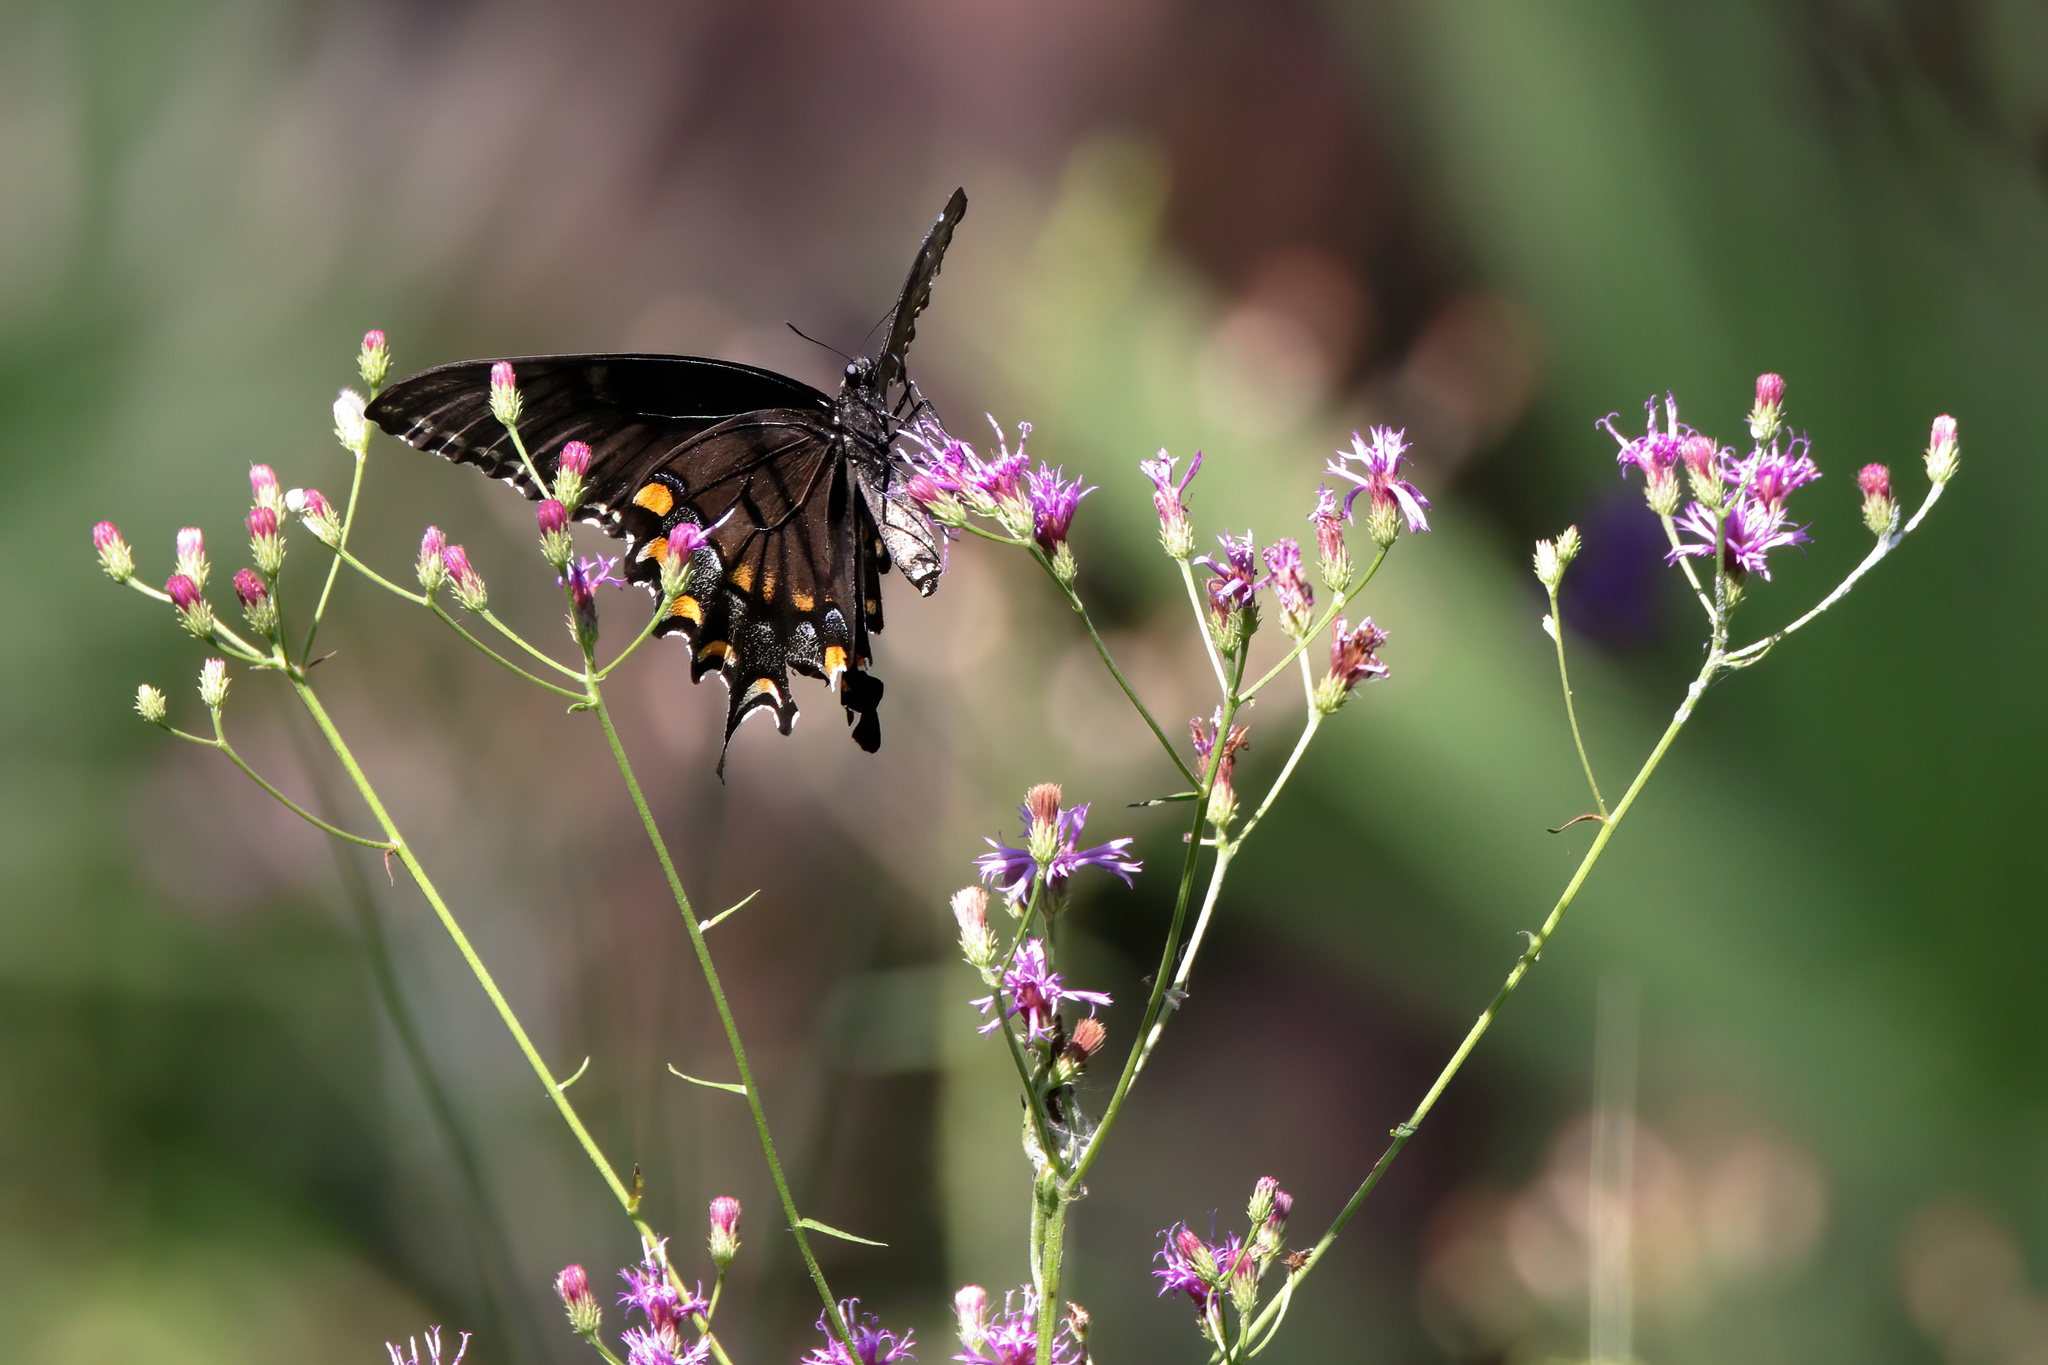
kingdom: Animalia
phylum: Arthropoda
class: Insecta
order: Lepidoptera
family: Papilionidae
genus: Papilio
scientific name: Papilio glaucus
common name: Tiger swallowtail
